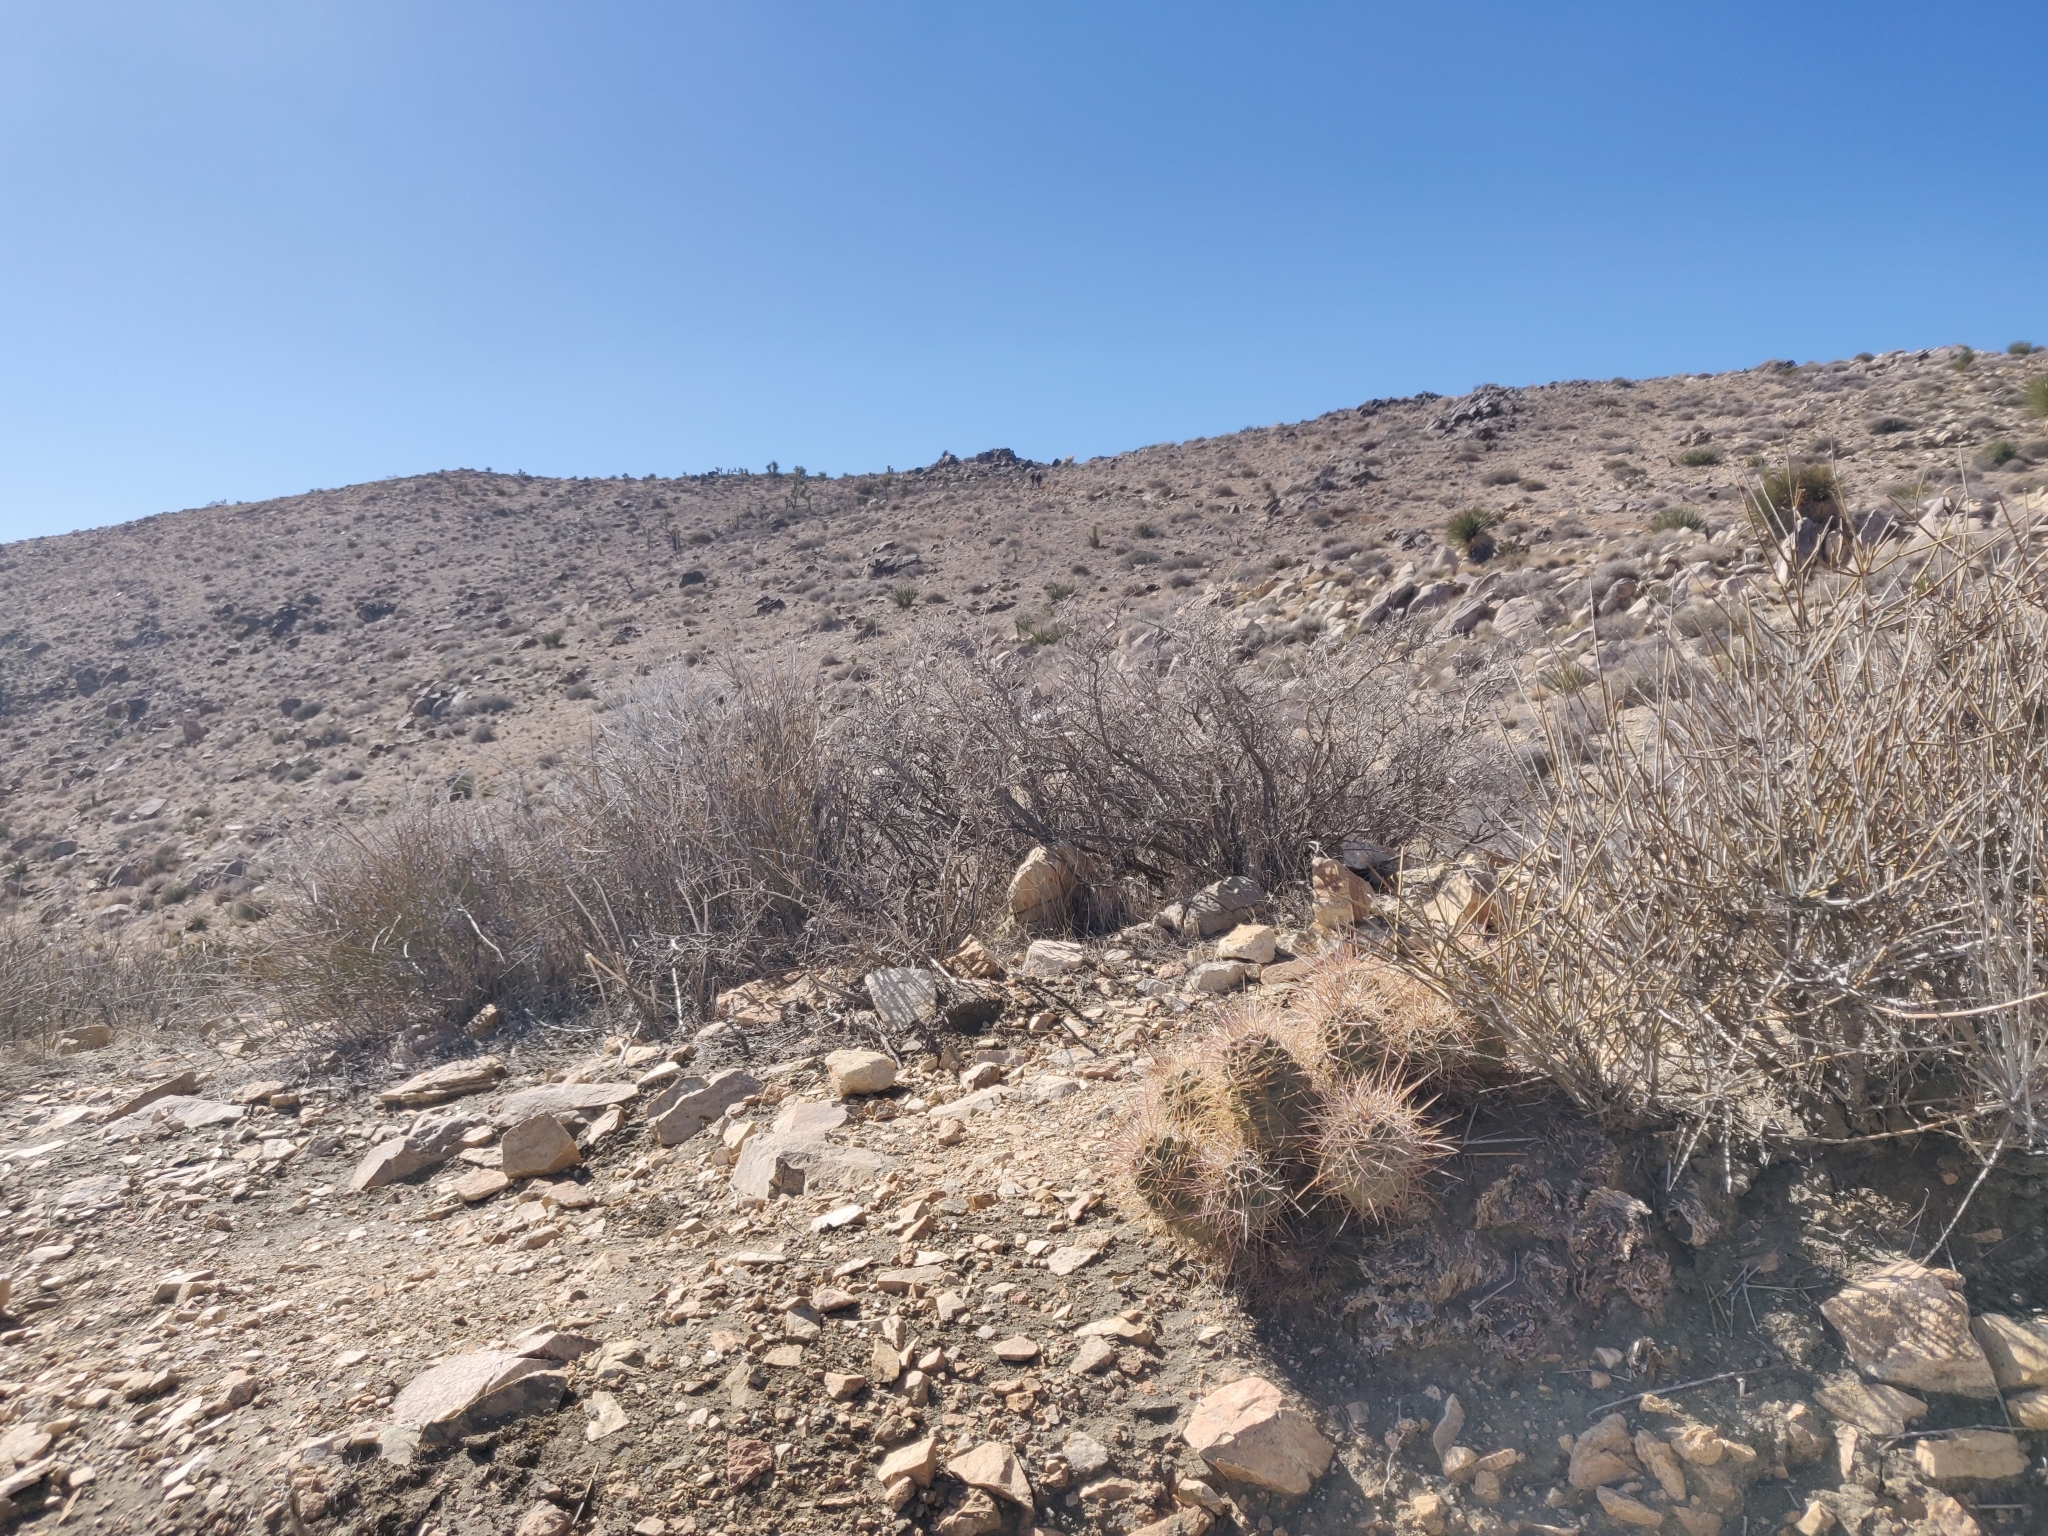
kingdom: Plantae
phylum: Tracheophyta
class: Magnoliopsida
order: Caryophyllales
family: Cactaceae
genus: Echinocereus
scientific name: Echinocereus triglochidiatus
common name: Claretcup hedgehog
